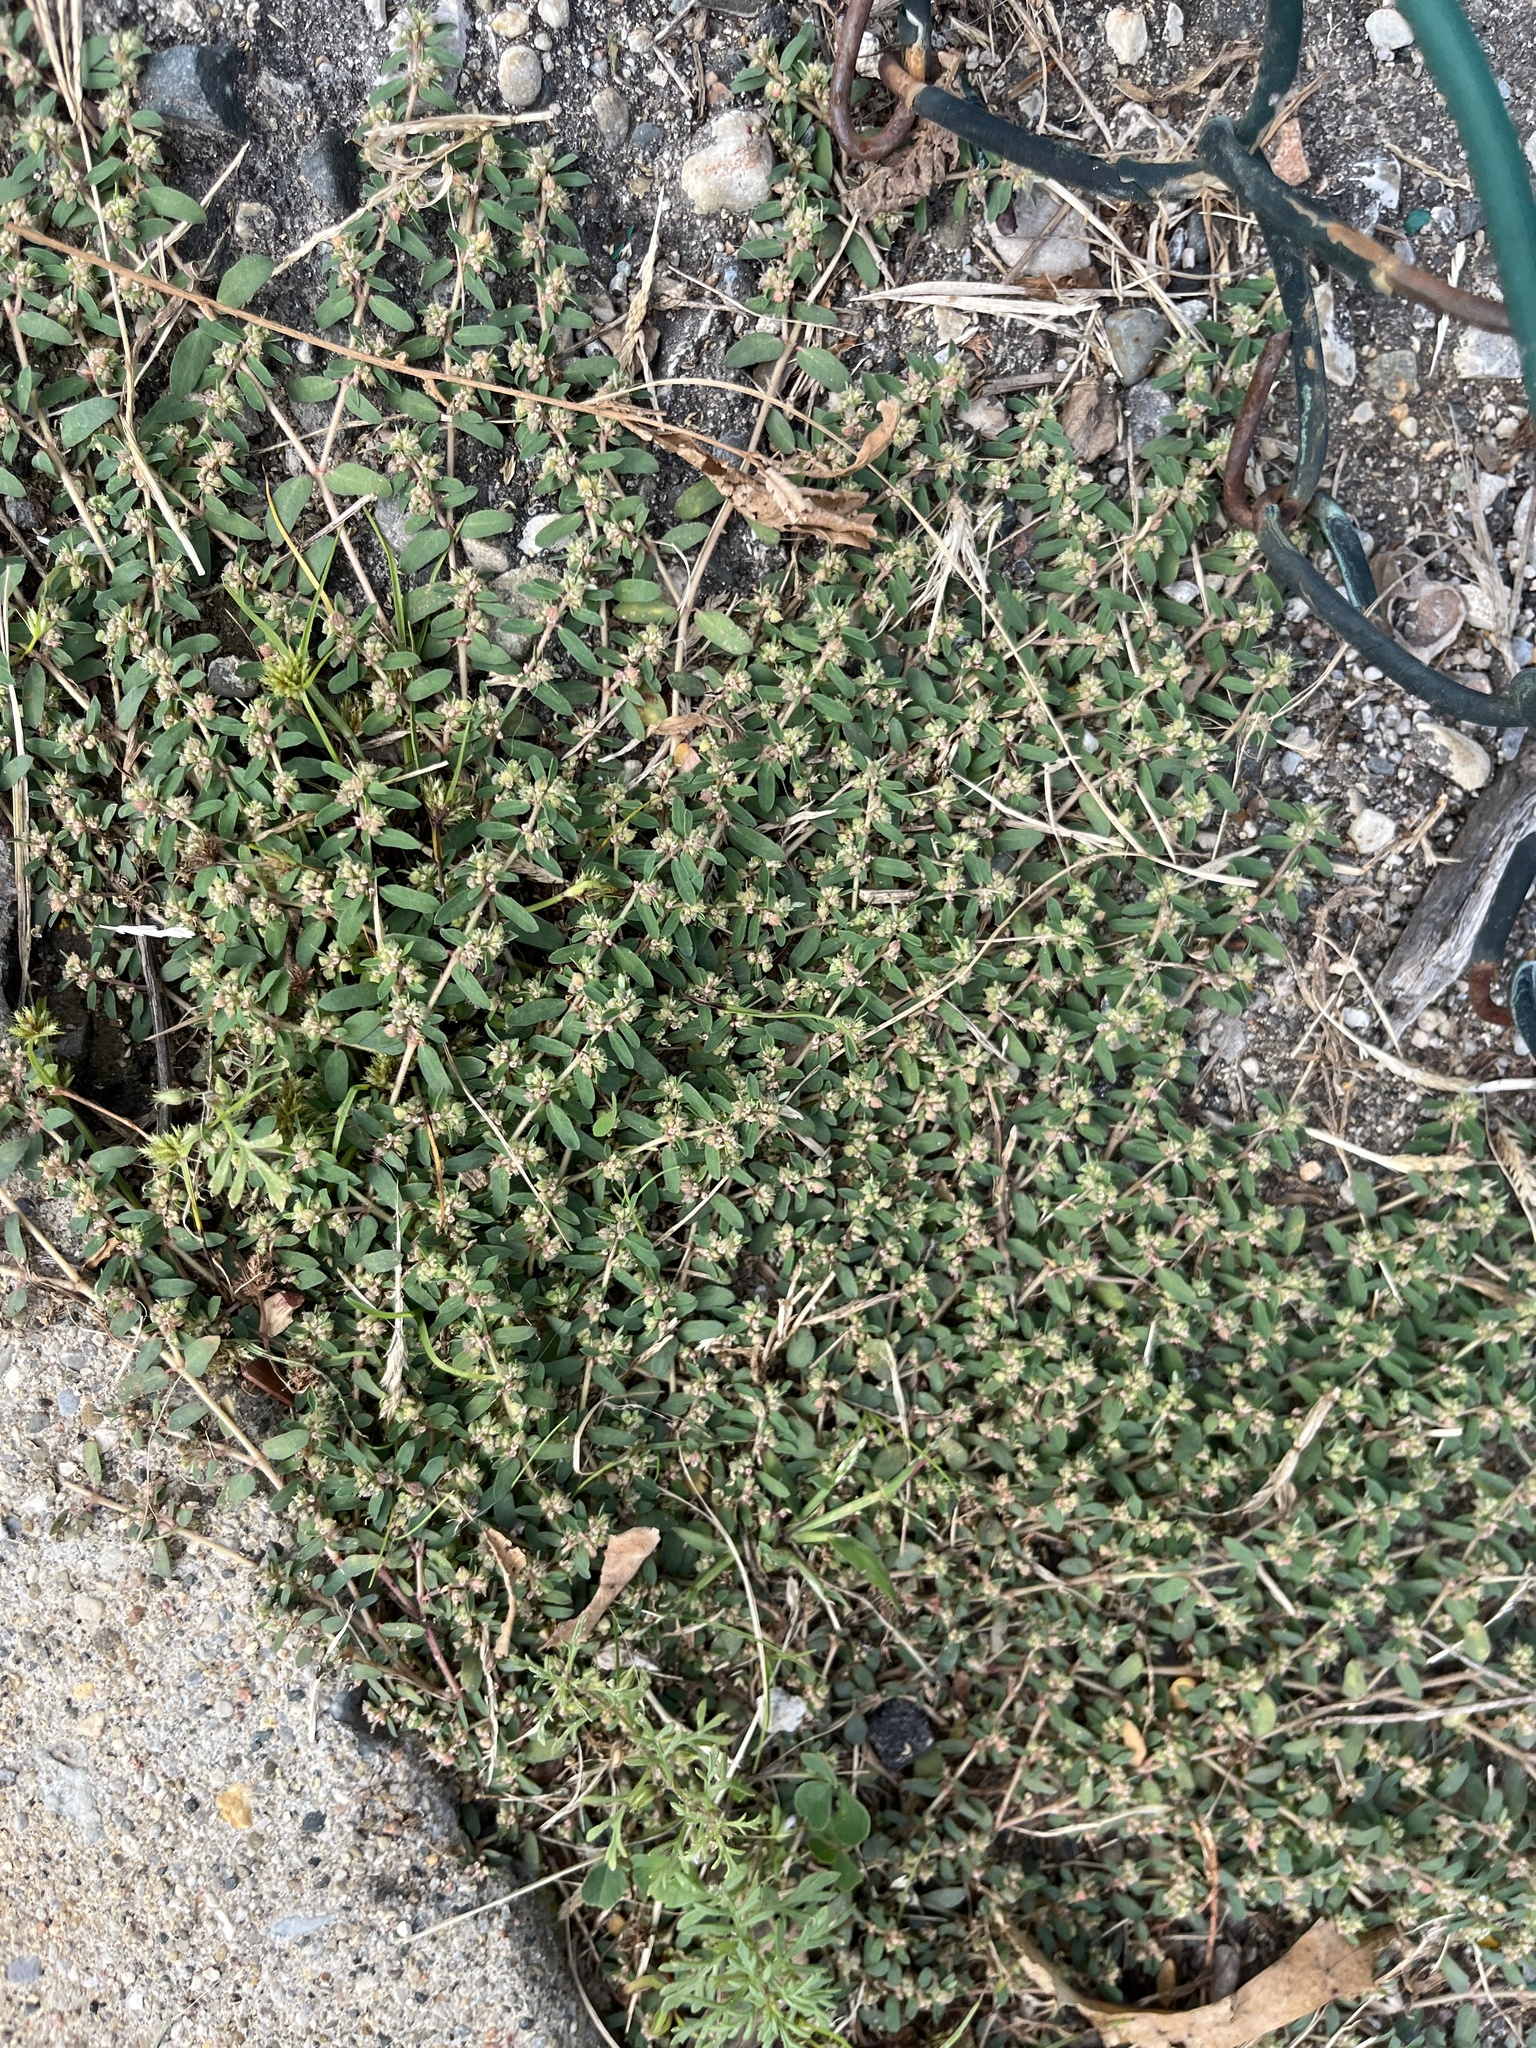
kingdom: Plantae
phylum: Tracheophyta
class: Magnoliopsida
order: Malpighiales
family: Euphorbiaceae
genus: Euphorbia
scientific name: Euphorbia maculata
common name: Spotted spurge
